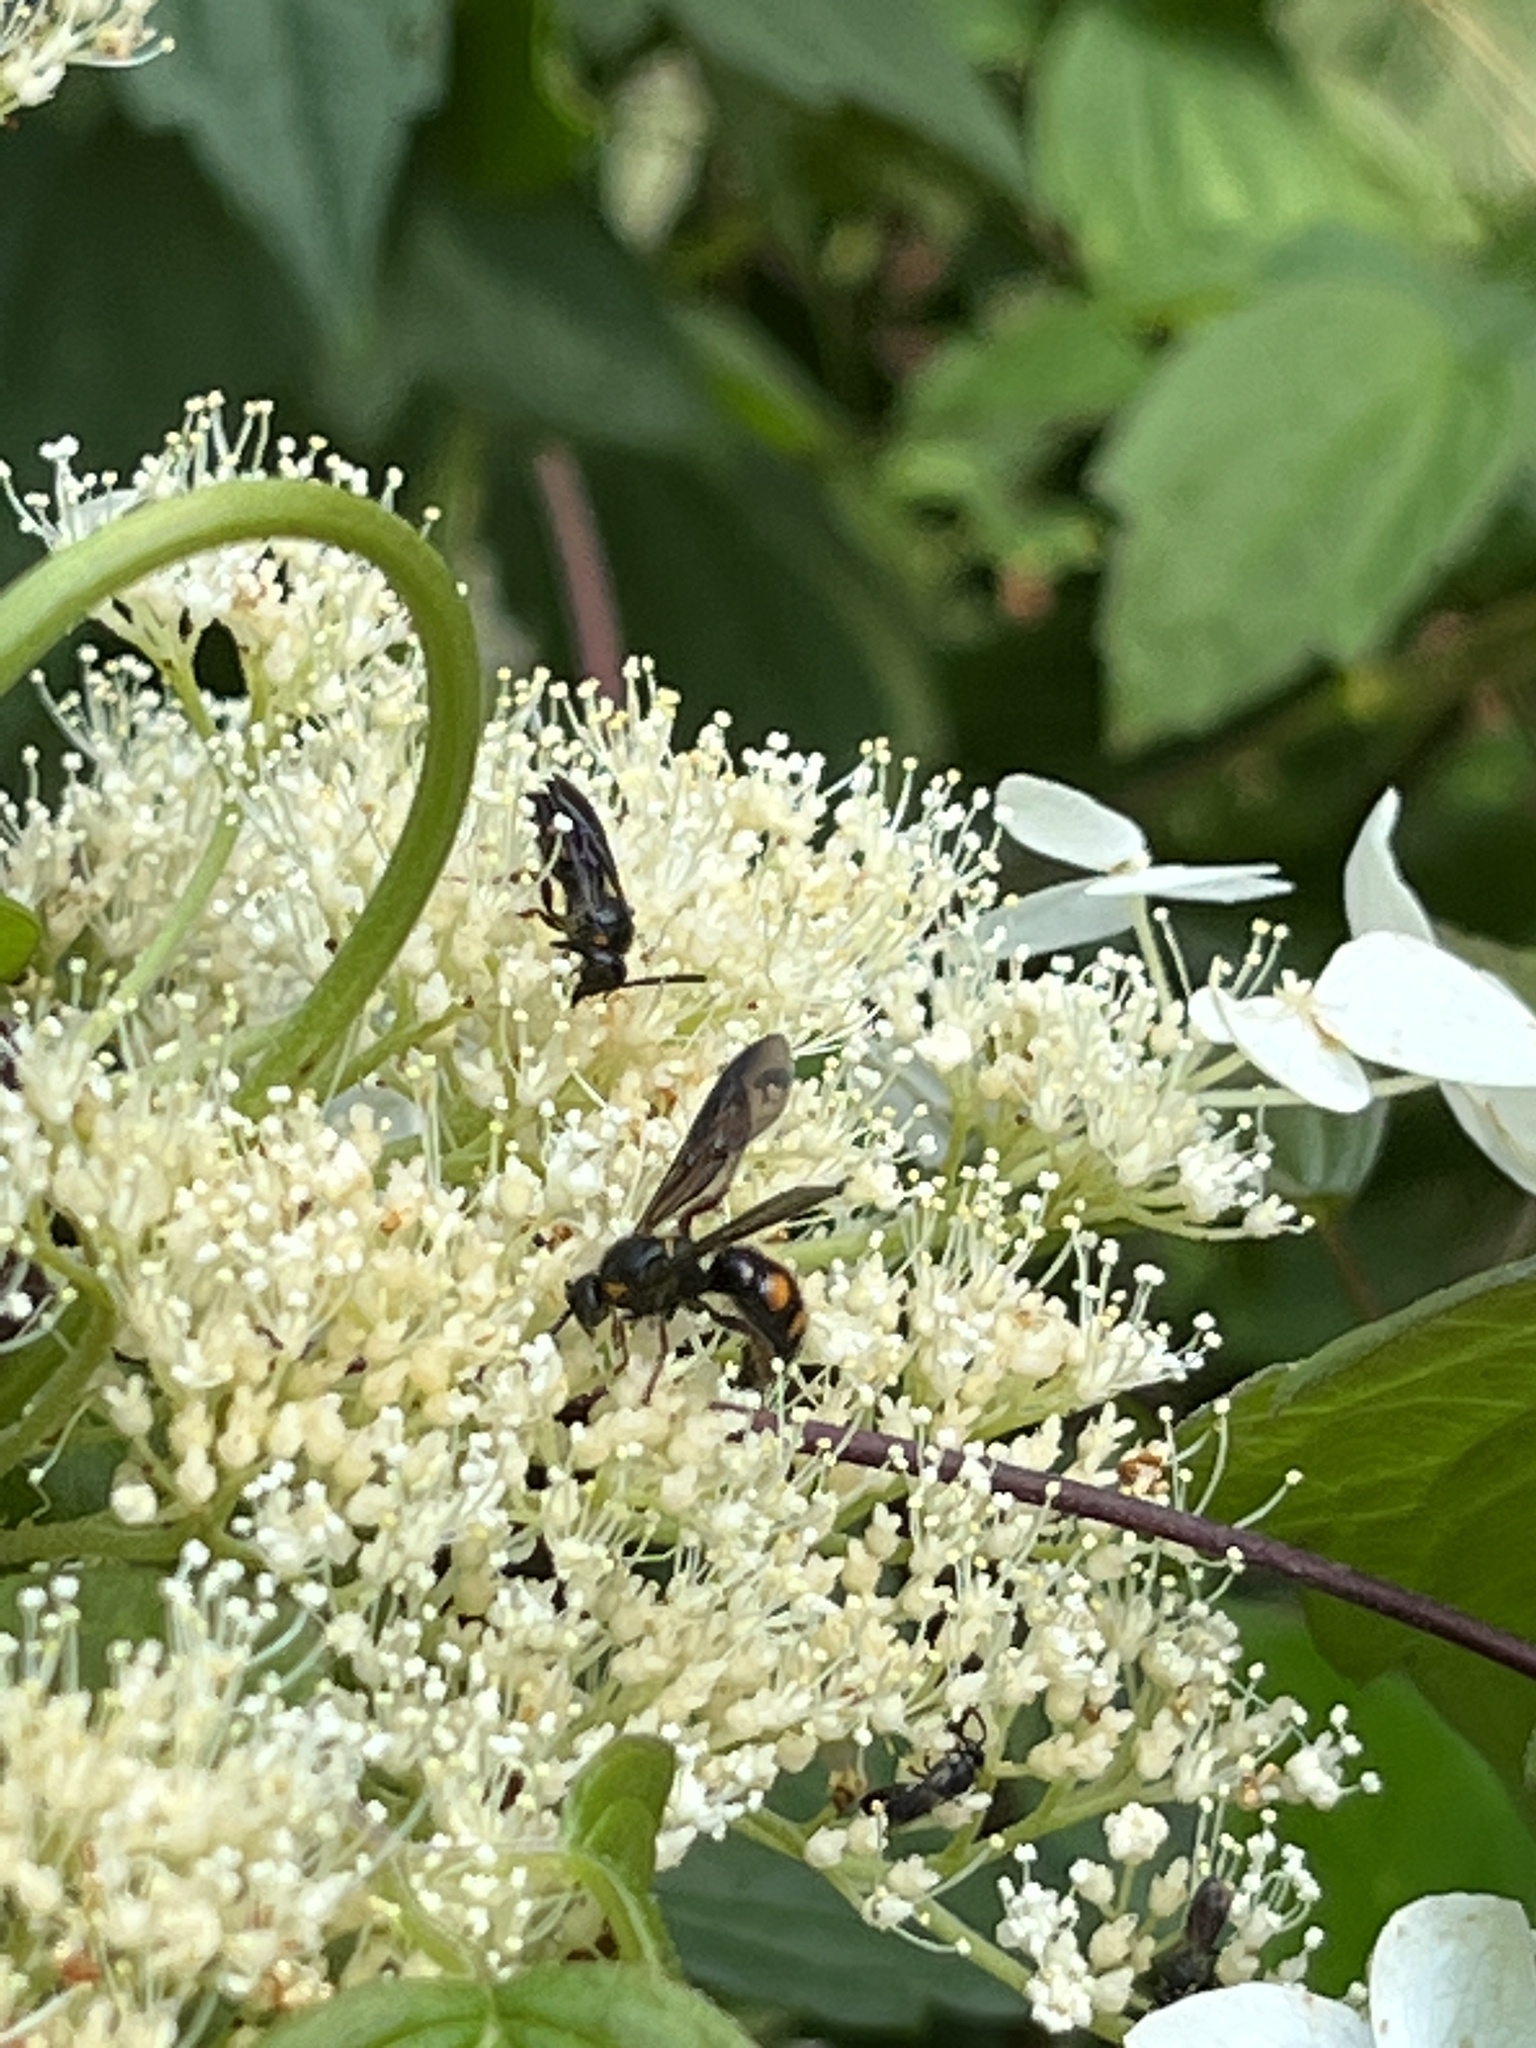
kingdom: Animalia
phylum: Arthropoda
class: Insecta
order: Hymenoptera
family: Scoliidae
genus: Scolia
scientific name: Scolia nobilitata
